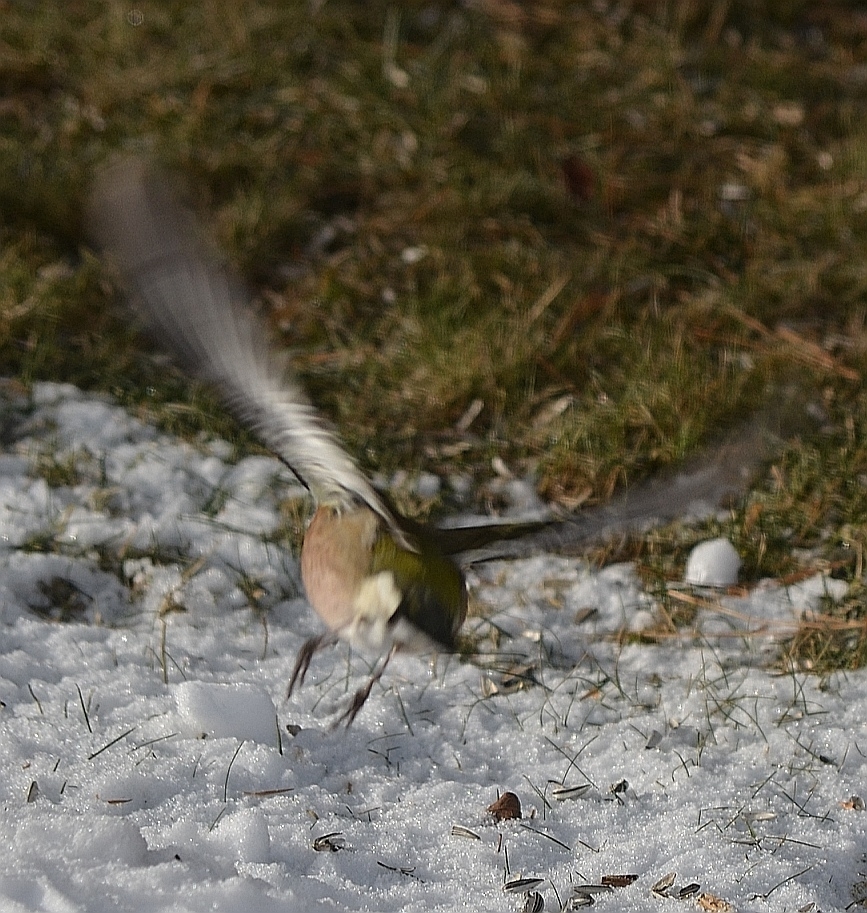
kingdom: Animalia
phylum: Chordata
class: Aves
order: Passeriformes
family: Fringillidae
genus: Fringilla
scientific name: Fringilla coelebs
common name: Common chaffinch
